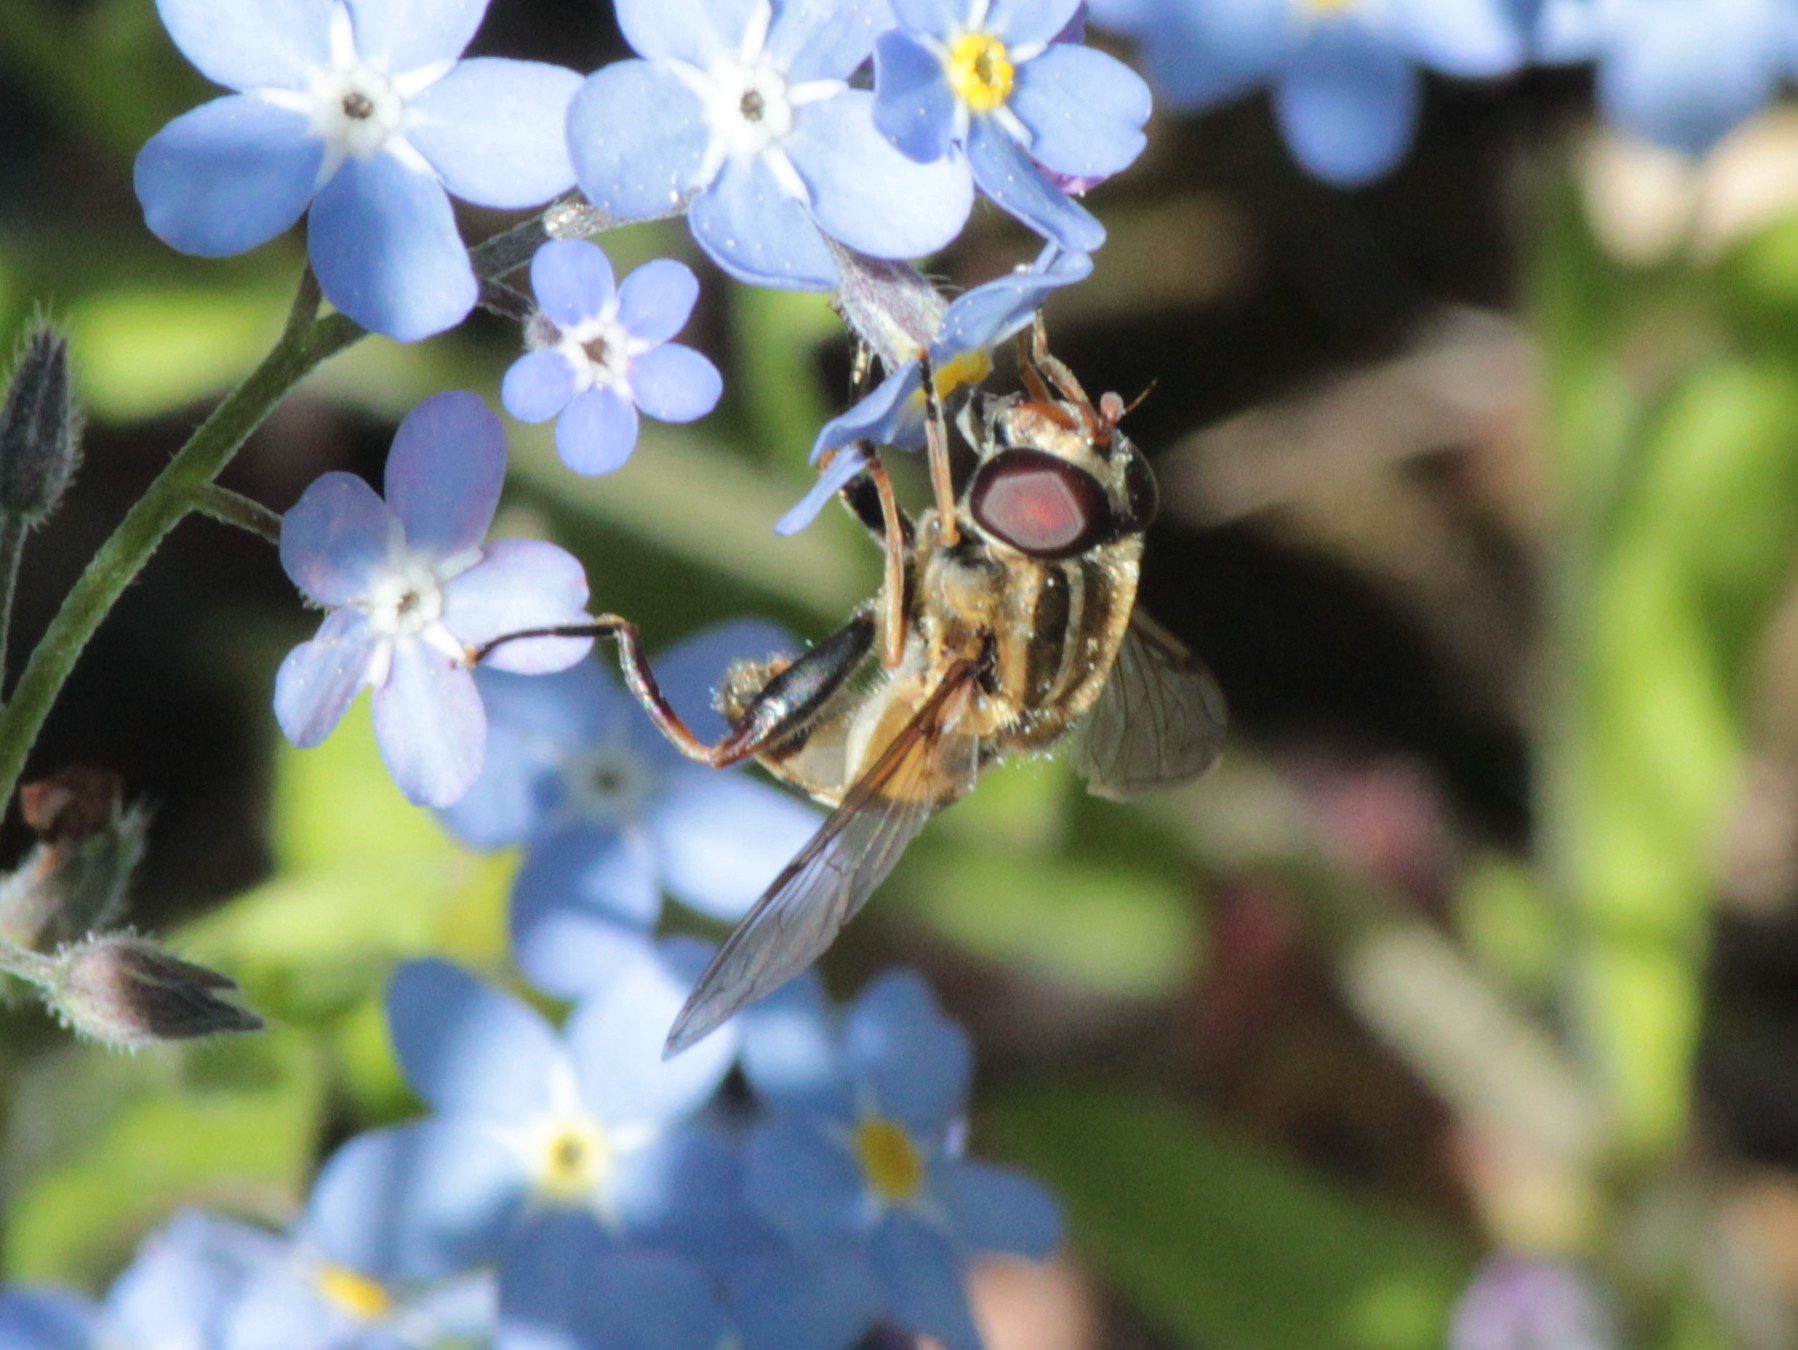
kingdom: Animalia
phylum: Arthropoda
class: Insecta
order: Diptera
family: Syrphidae
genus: Helophilus
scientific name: Helophilus fasciatus
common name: Narrow-headed marsh fly
